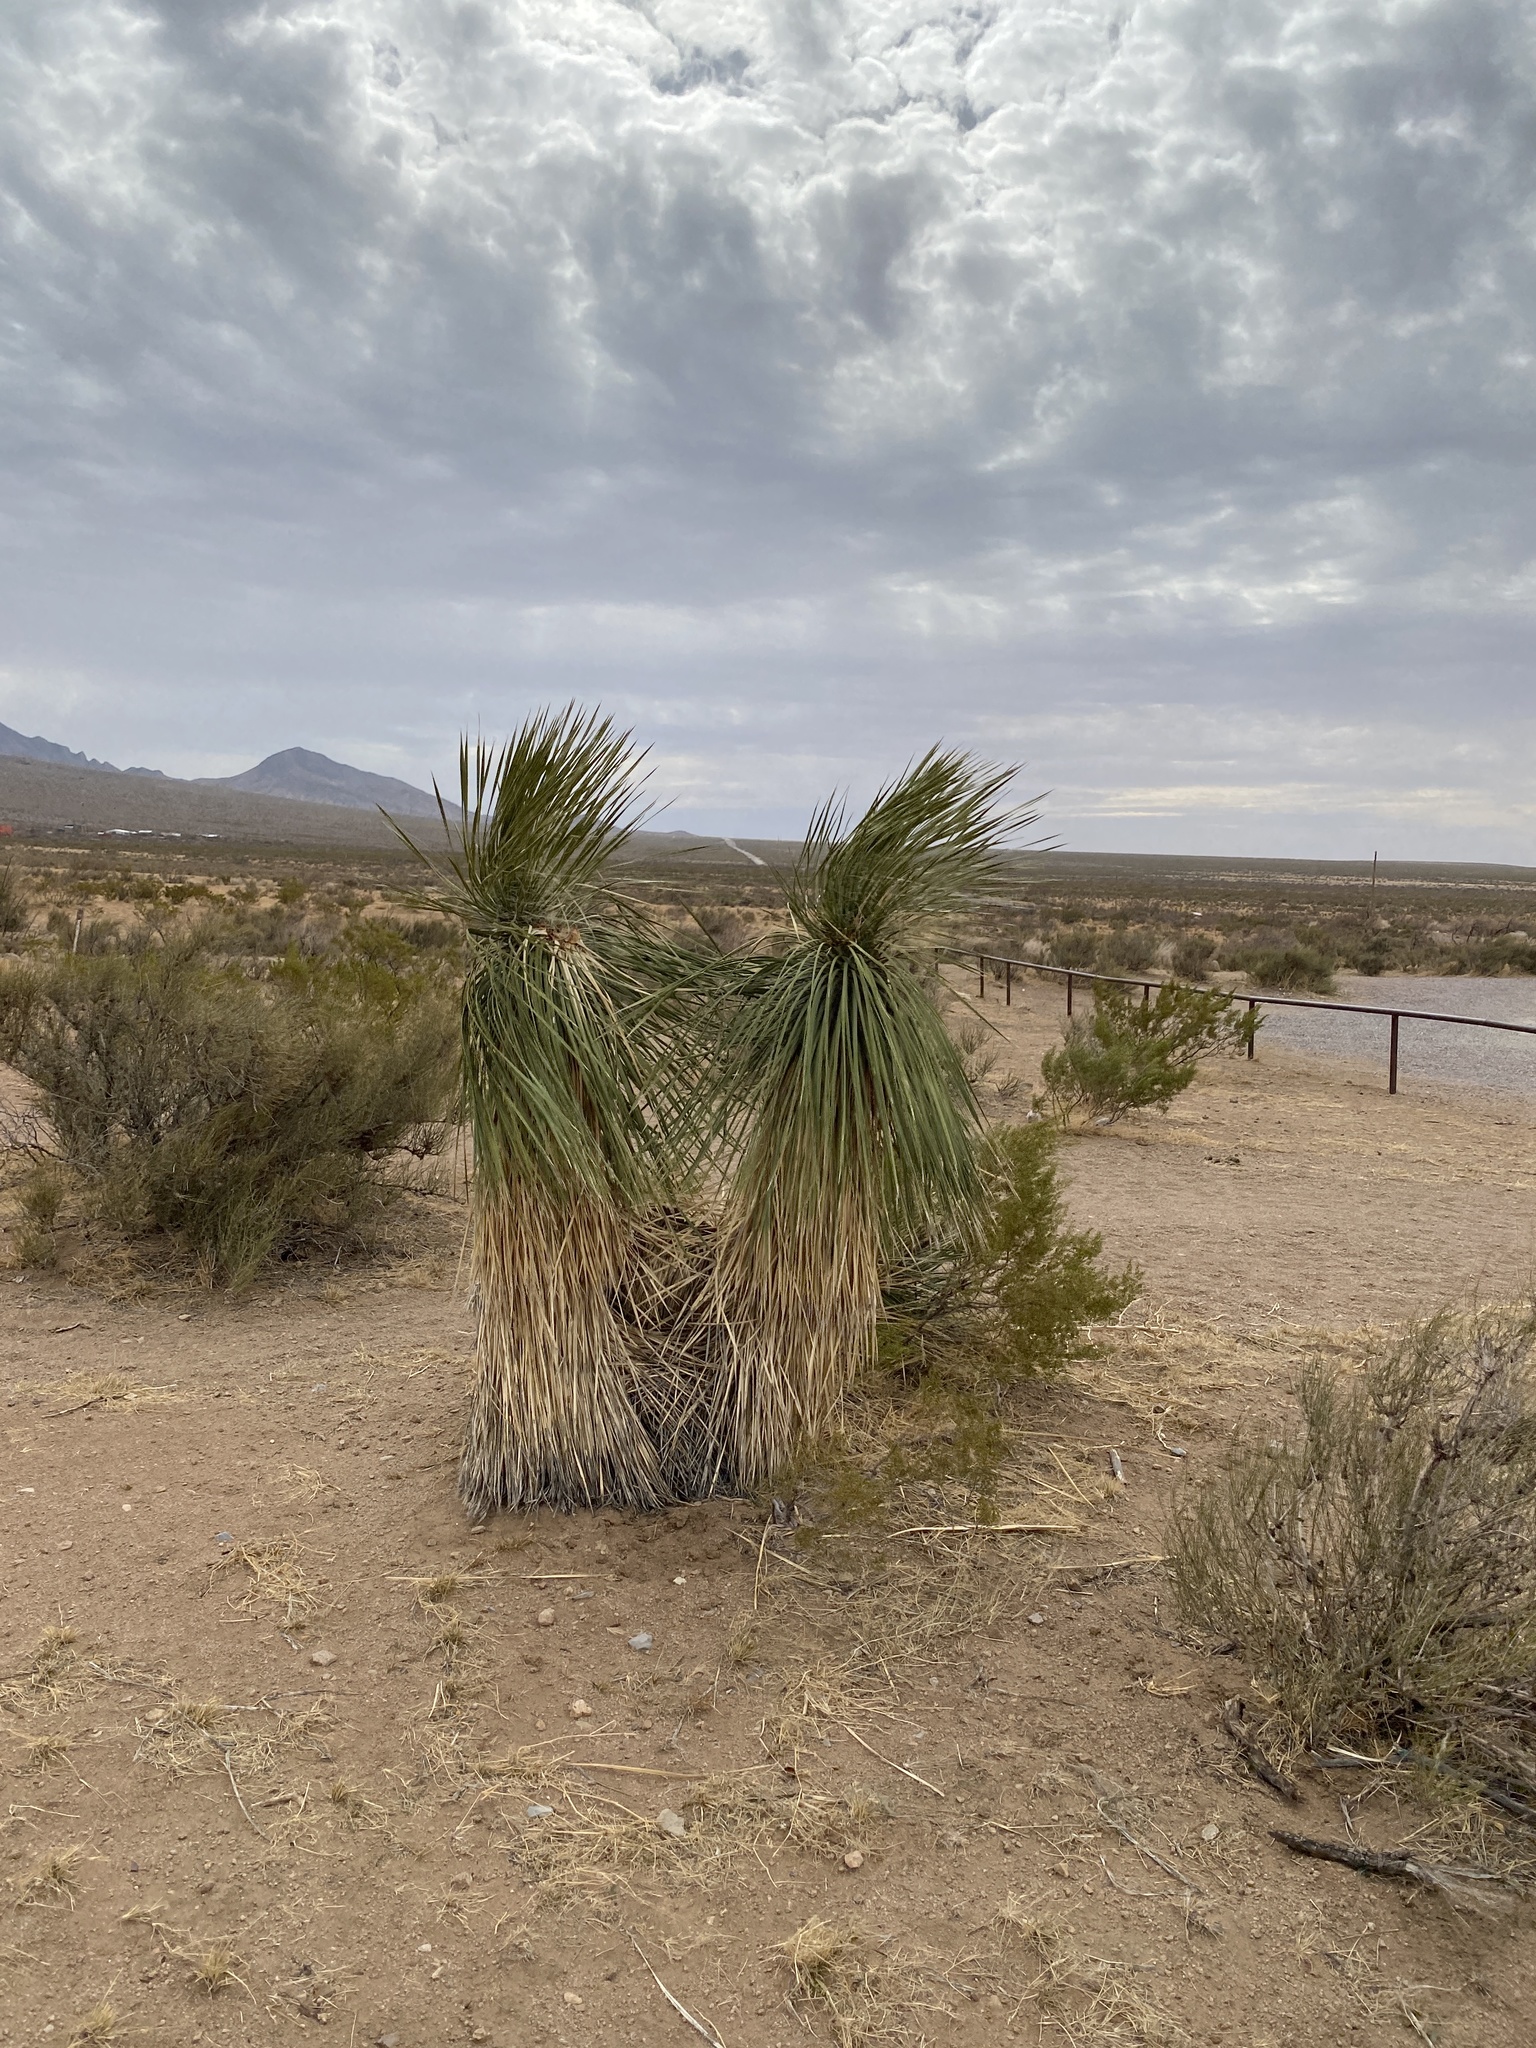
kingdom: Plantae
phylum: Tracheophyta
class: Liliopsida
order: Asparagales
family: Asparagaceae
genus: Yucca
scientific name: Yucca elata
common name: Palmella
